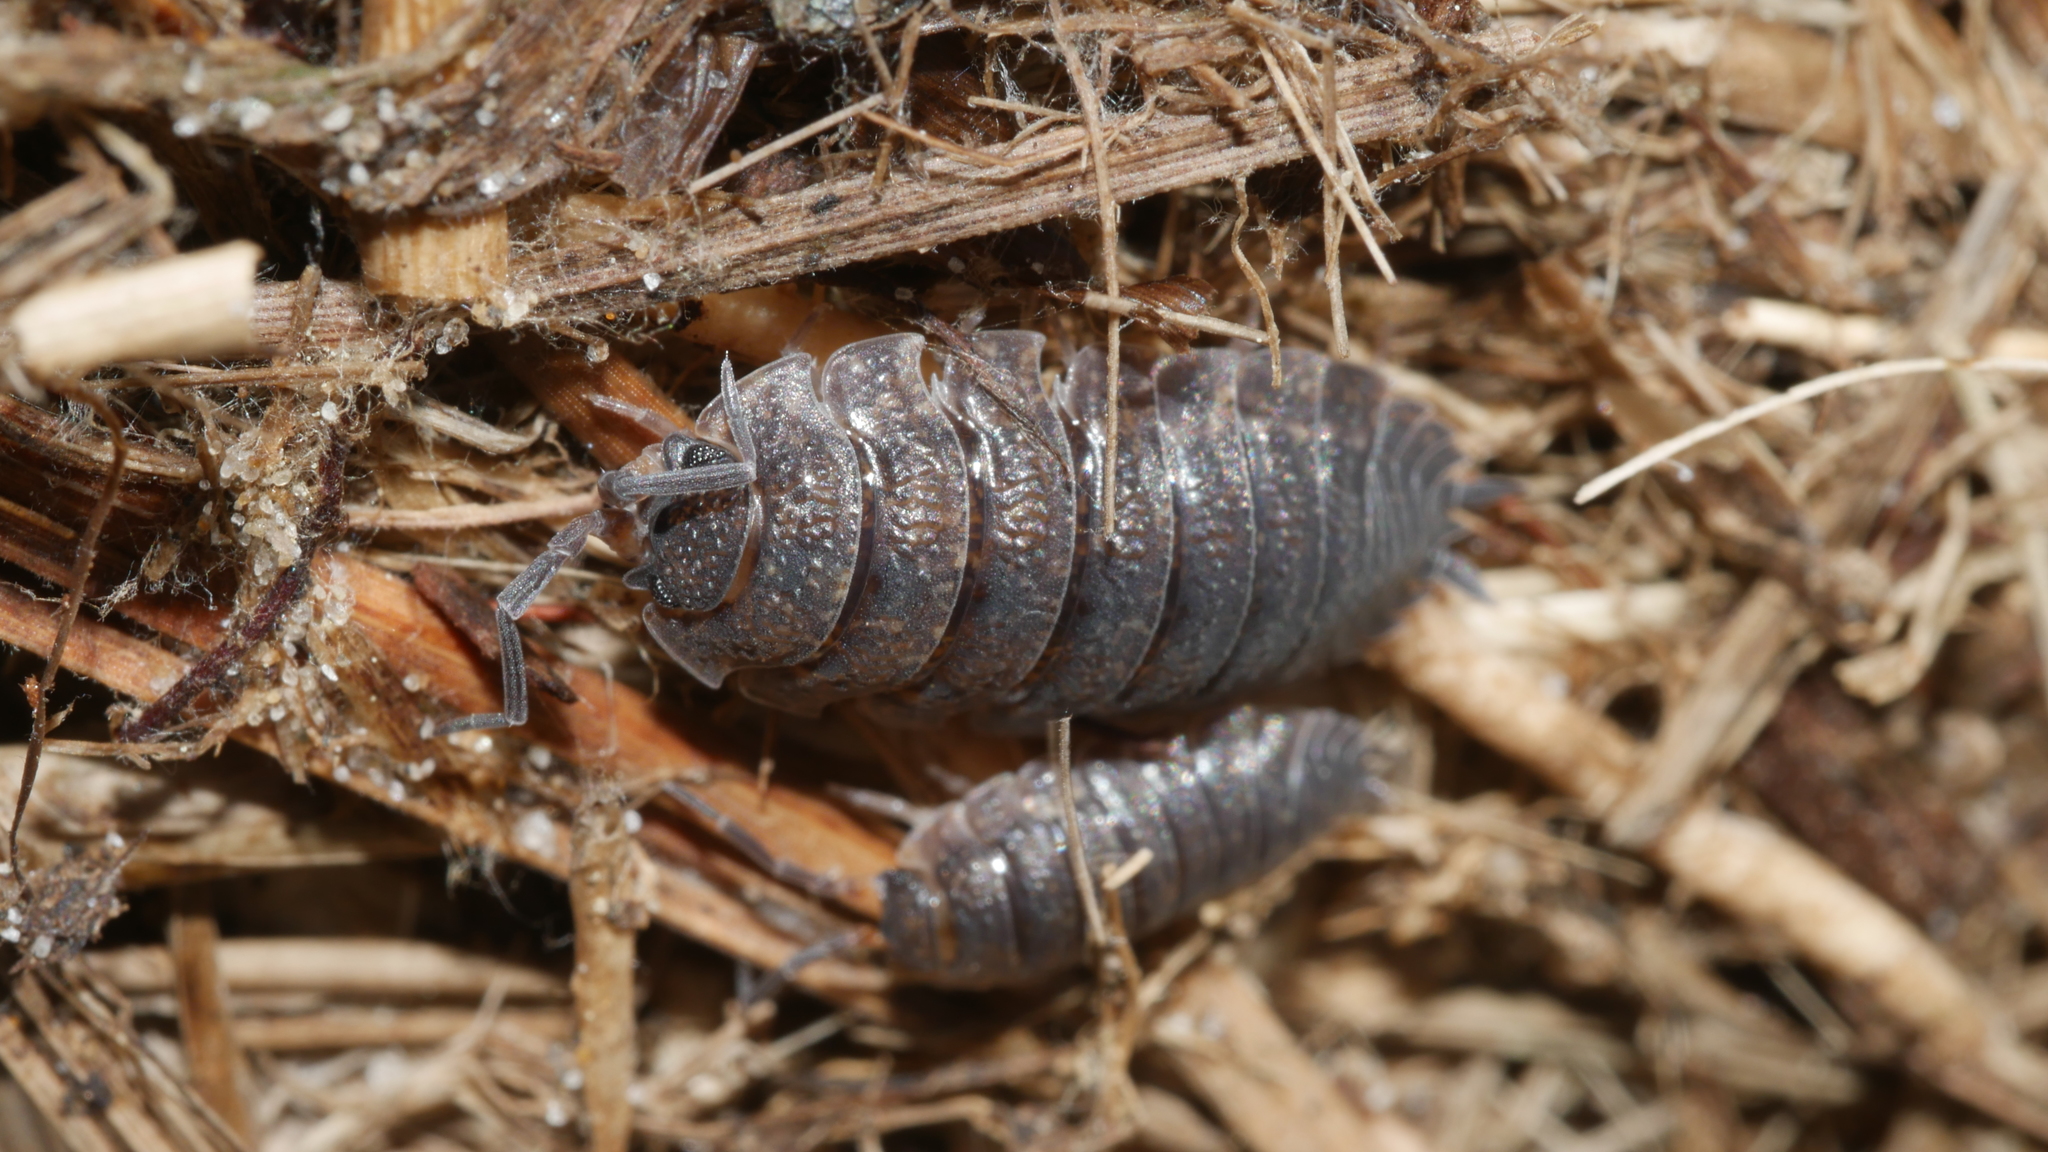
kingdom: Animalia
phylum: Arthropoda
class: Malacostraca
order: Isopoda
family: Porcellionidae
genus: Porcellio
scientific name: Porcellio scaber
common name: Common rough woodlouse
